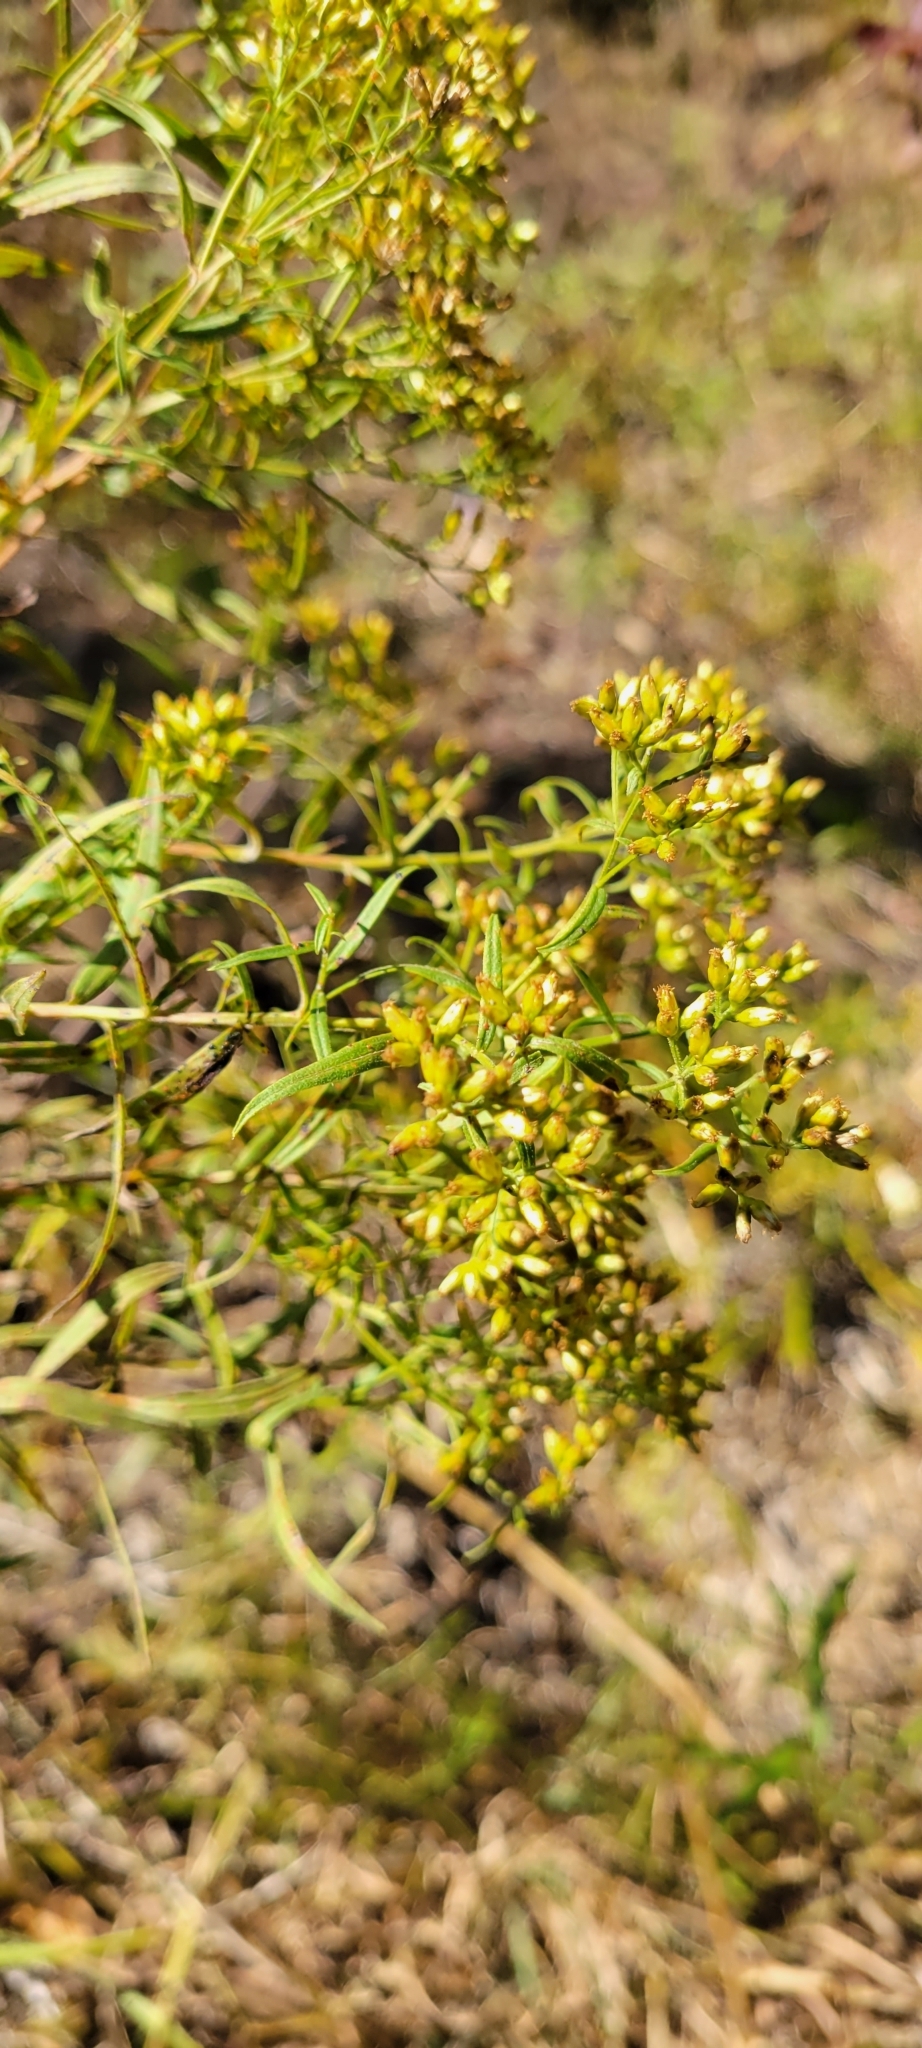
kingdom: Plantae
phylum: Tracheophyta
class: Magnoliopsida
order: Asterales
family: Asteraceae
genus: Euthamia
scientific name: Euthamia graminifolia
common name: Common goldentop
